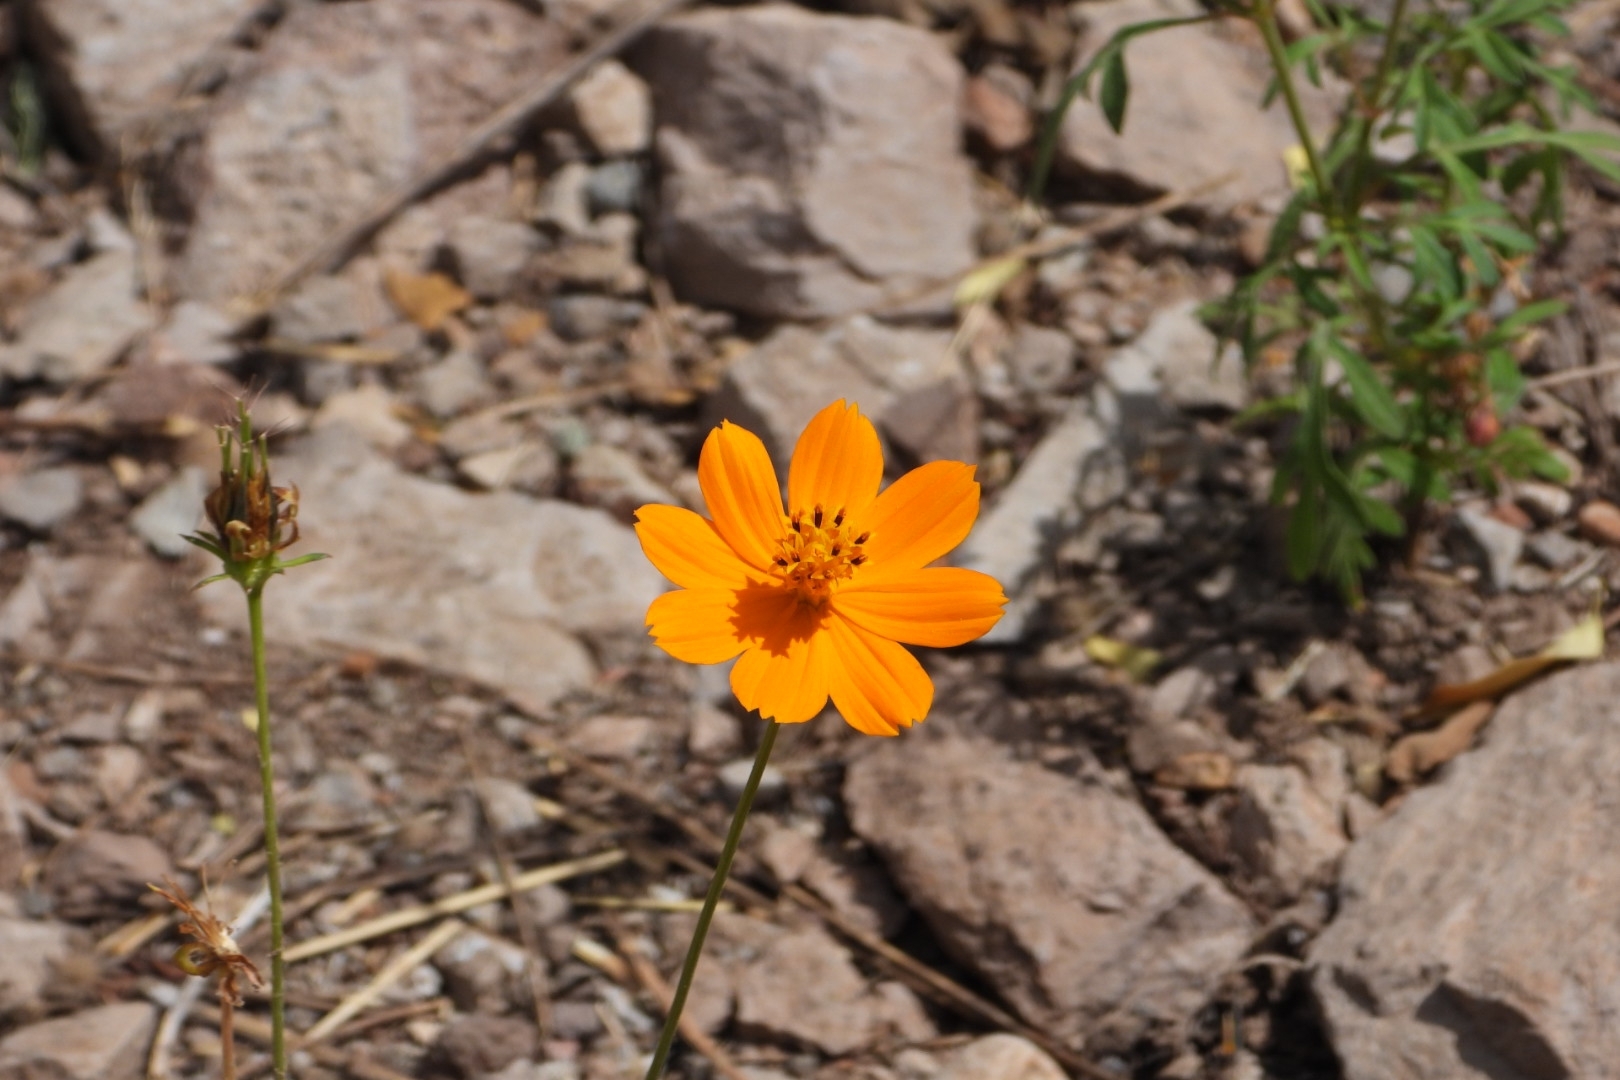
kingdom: Plantae
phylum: Tracheophyta
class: Magnoliopsida
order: Asterales
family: Asteraceae
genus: Cosmos
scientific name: Cosmos sulphureus
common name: Sulphur cosmos
